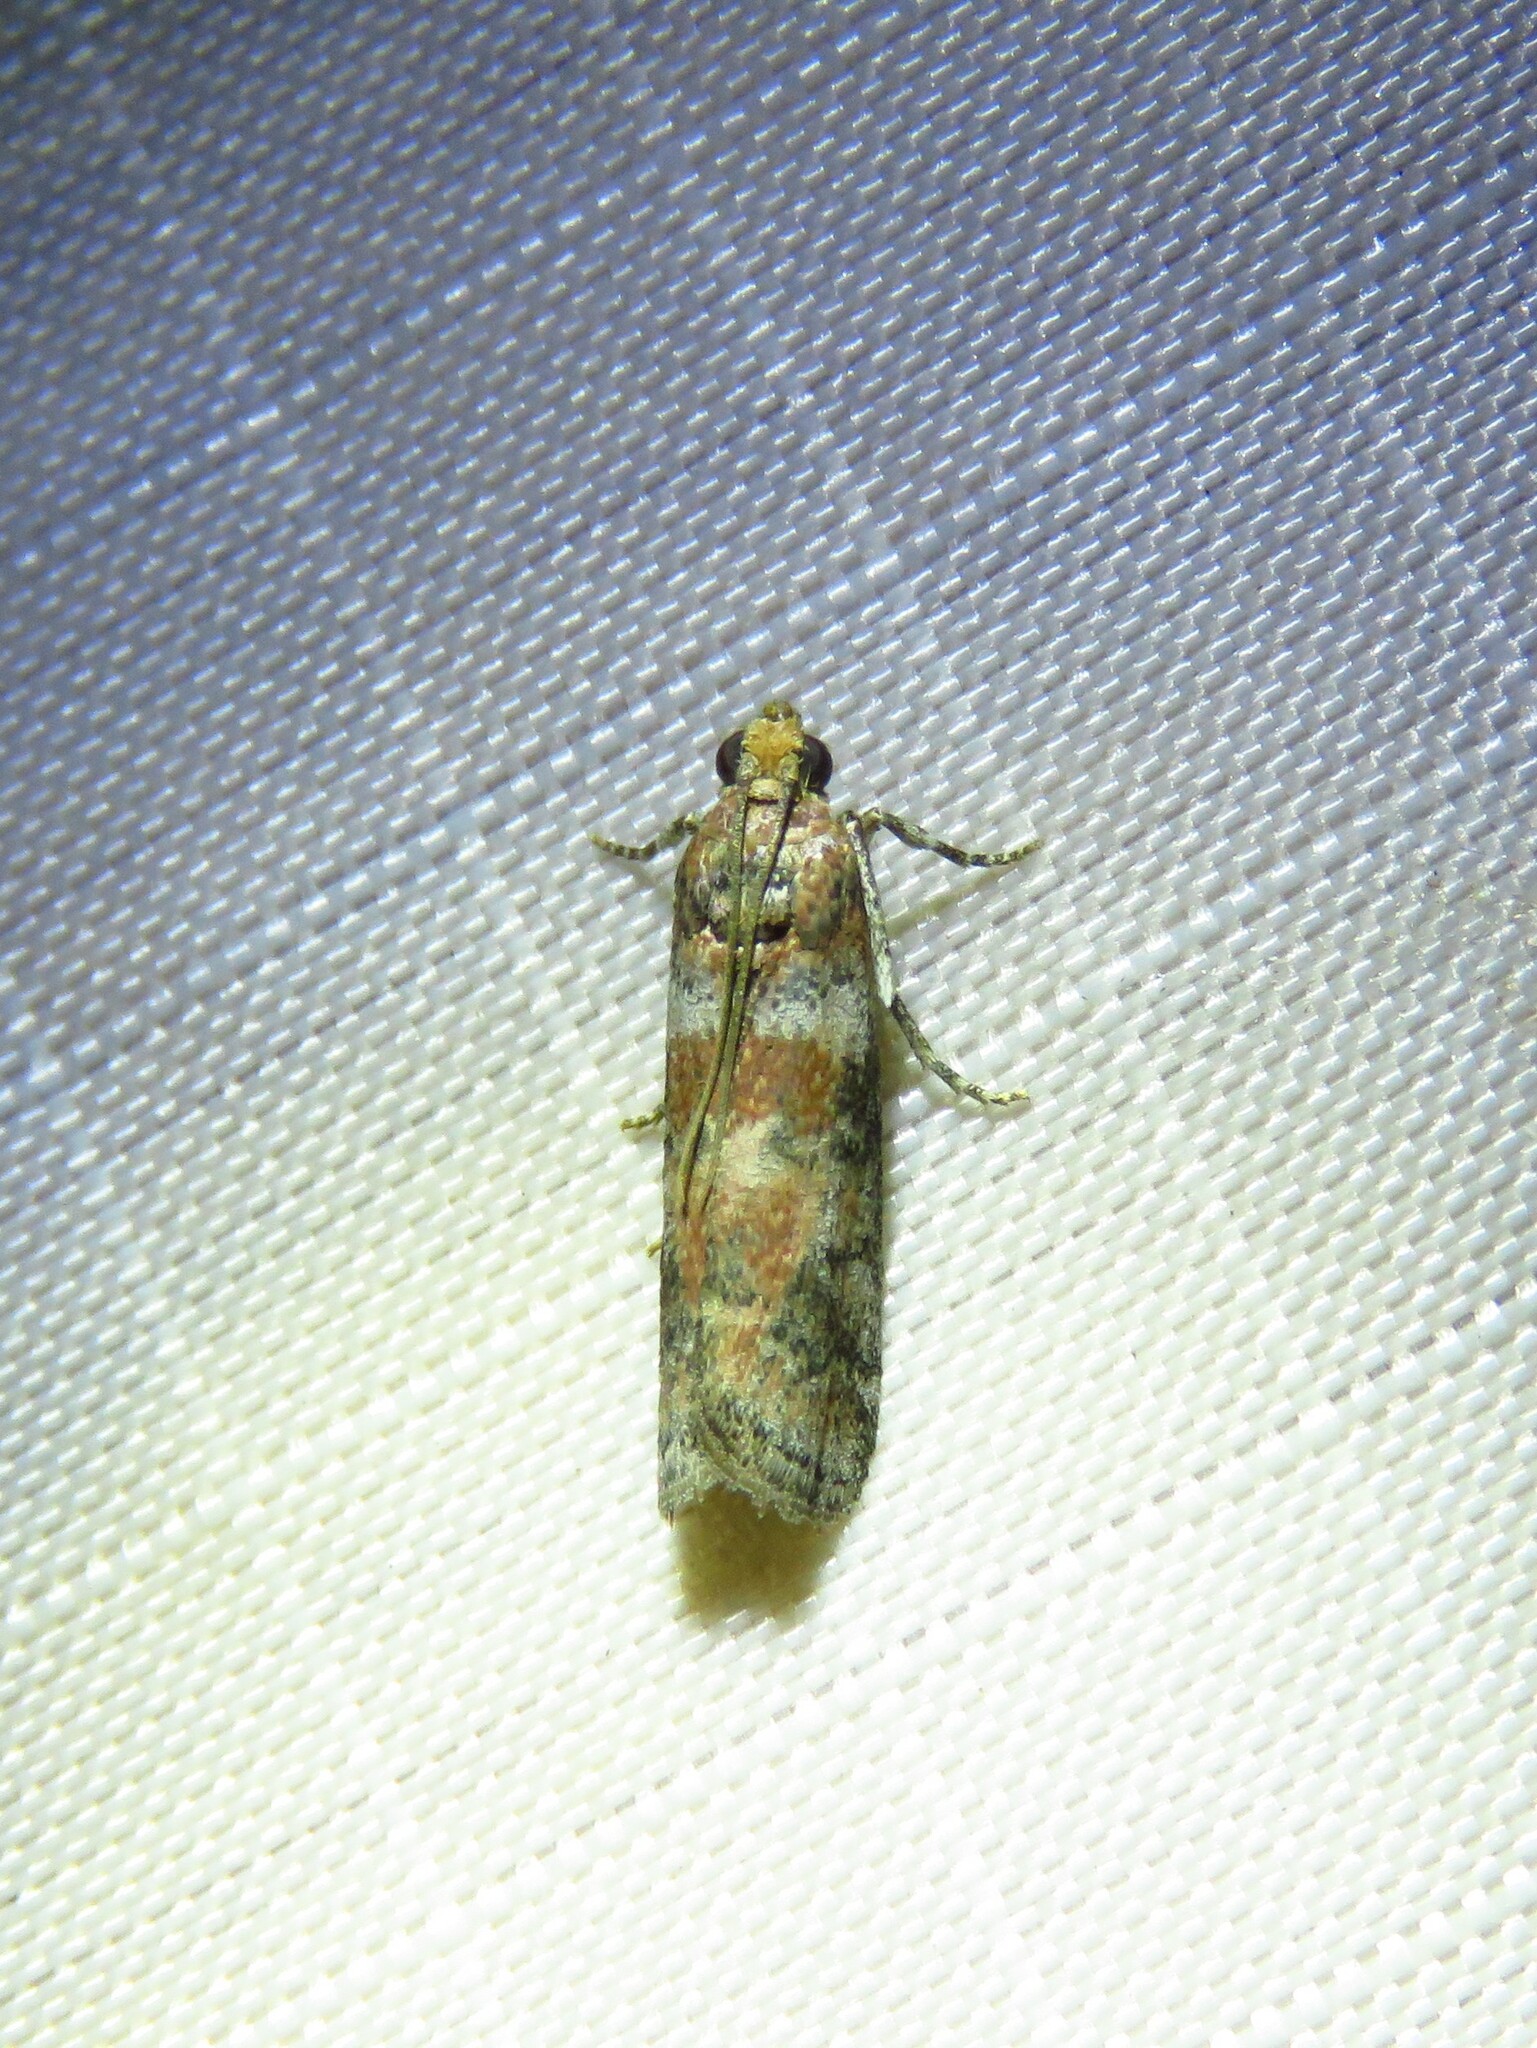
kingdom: Animalia
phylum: Arthropoda
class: Insecta
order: Lepidoptera
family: Pyralidae
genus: Sciota
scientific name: Sciota
